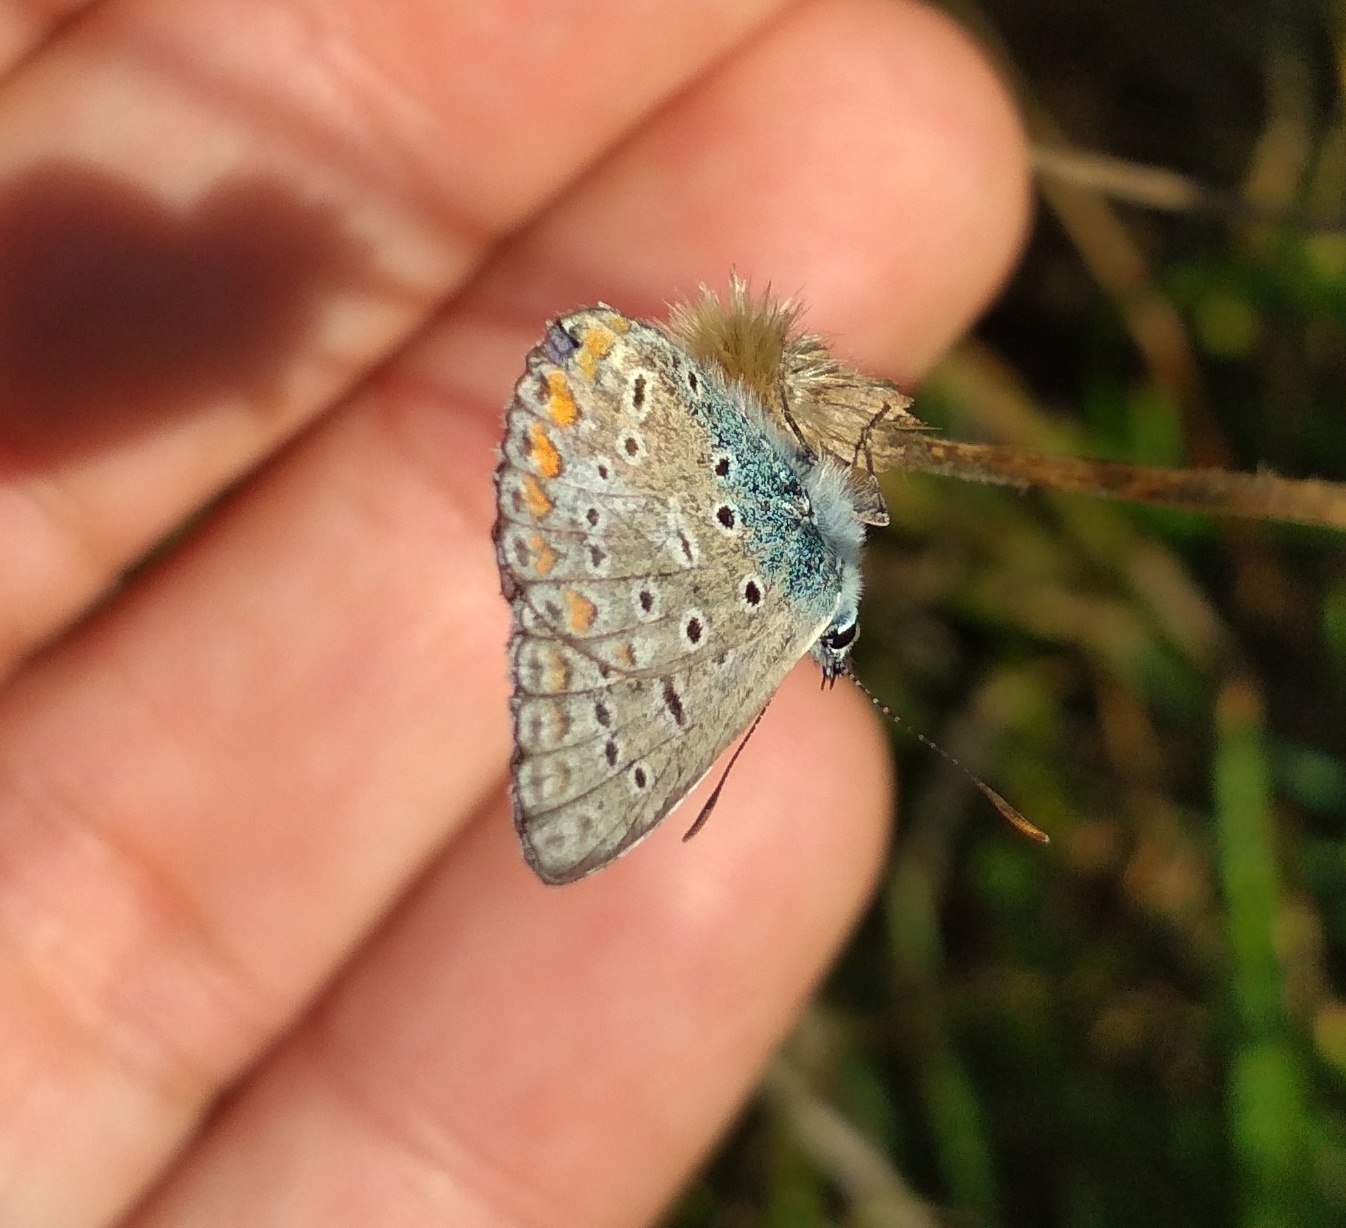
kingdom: Animalia
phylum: Arthropoda
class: Insecta
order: Lepidoptera
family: Lycaenidae
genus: Polyommatus
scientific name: Polyommatus icarus
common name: Common blue
